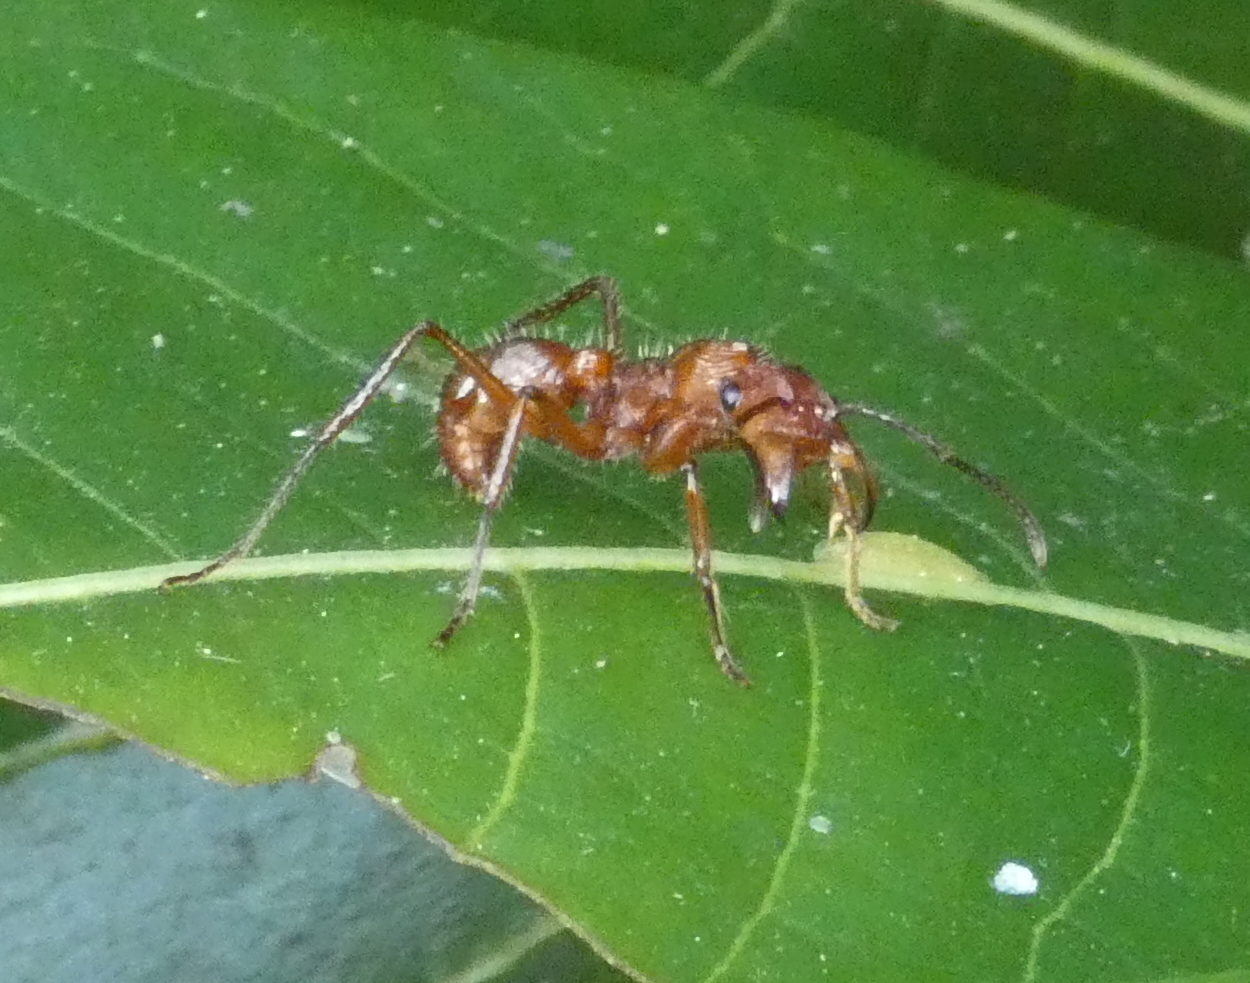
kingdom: Animalia
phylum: Arthropoda
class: Insecta
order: Hymenoptera
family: Formicidae
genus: Ectatomma
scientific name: Ectatomma tuberculatum
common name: Ant
